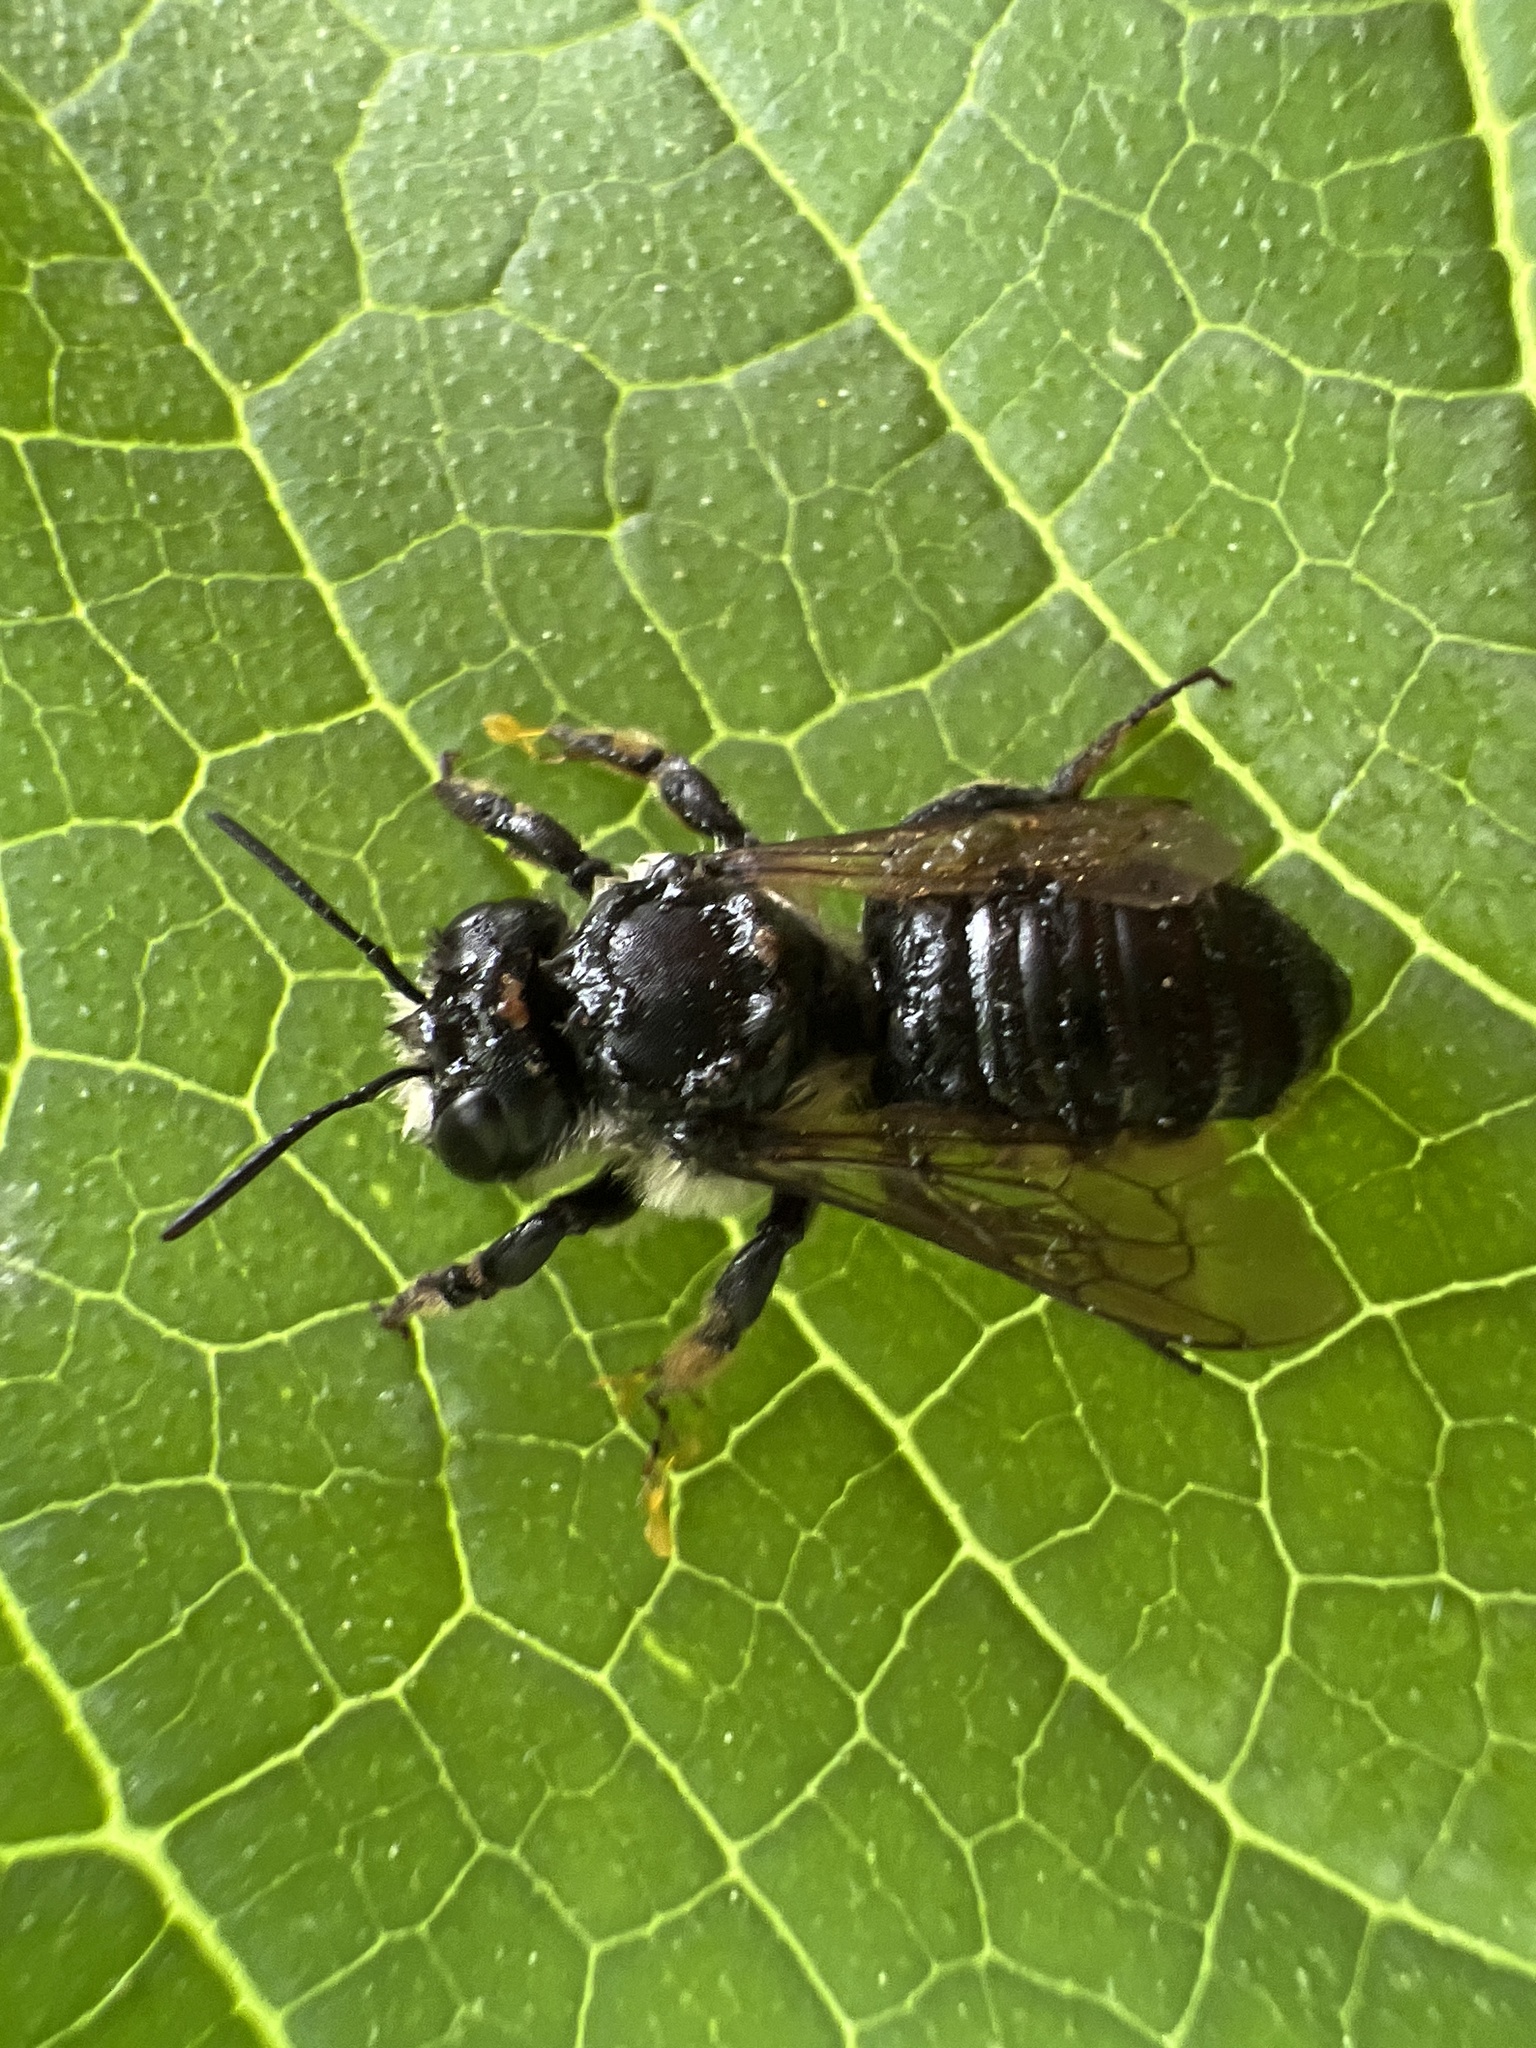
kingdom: Animalia
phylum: Arthropoda
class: Insecta
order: Hymenoptera
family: Megachilidae
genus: Megachile
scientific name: Megachile inermis
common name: Unarmed leafcutter bee
